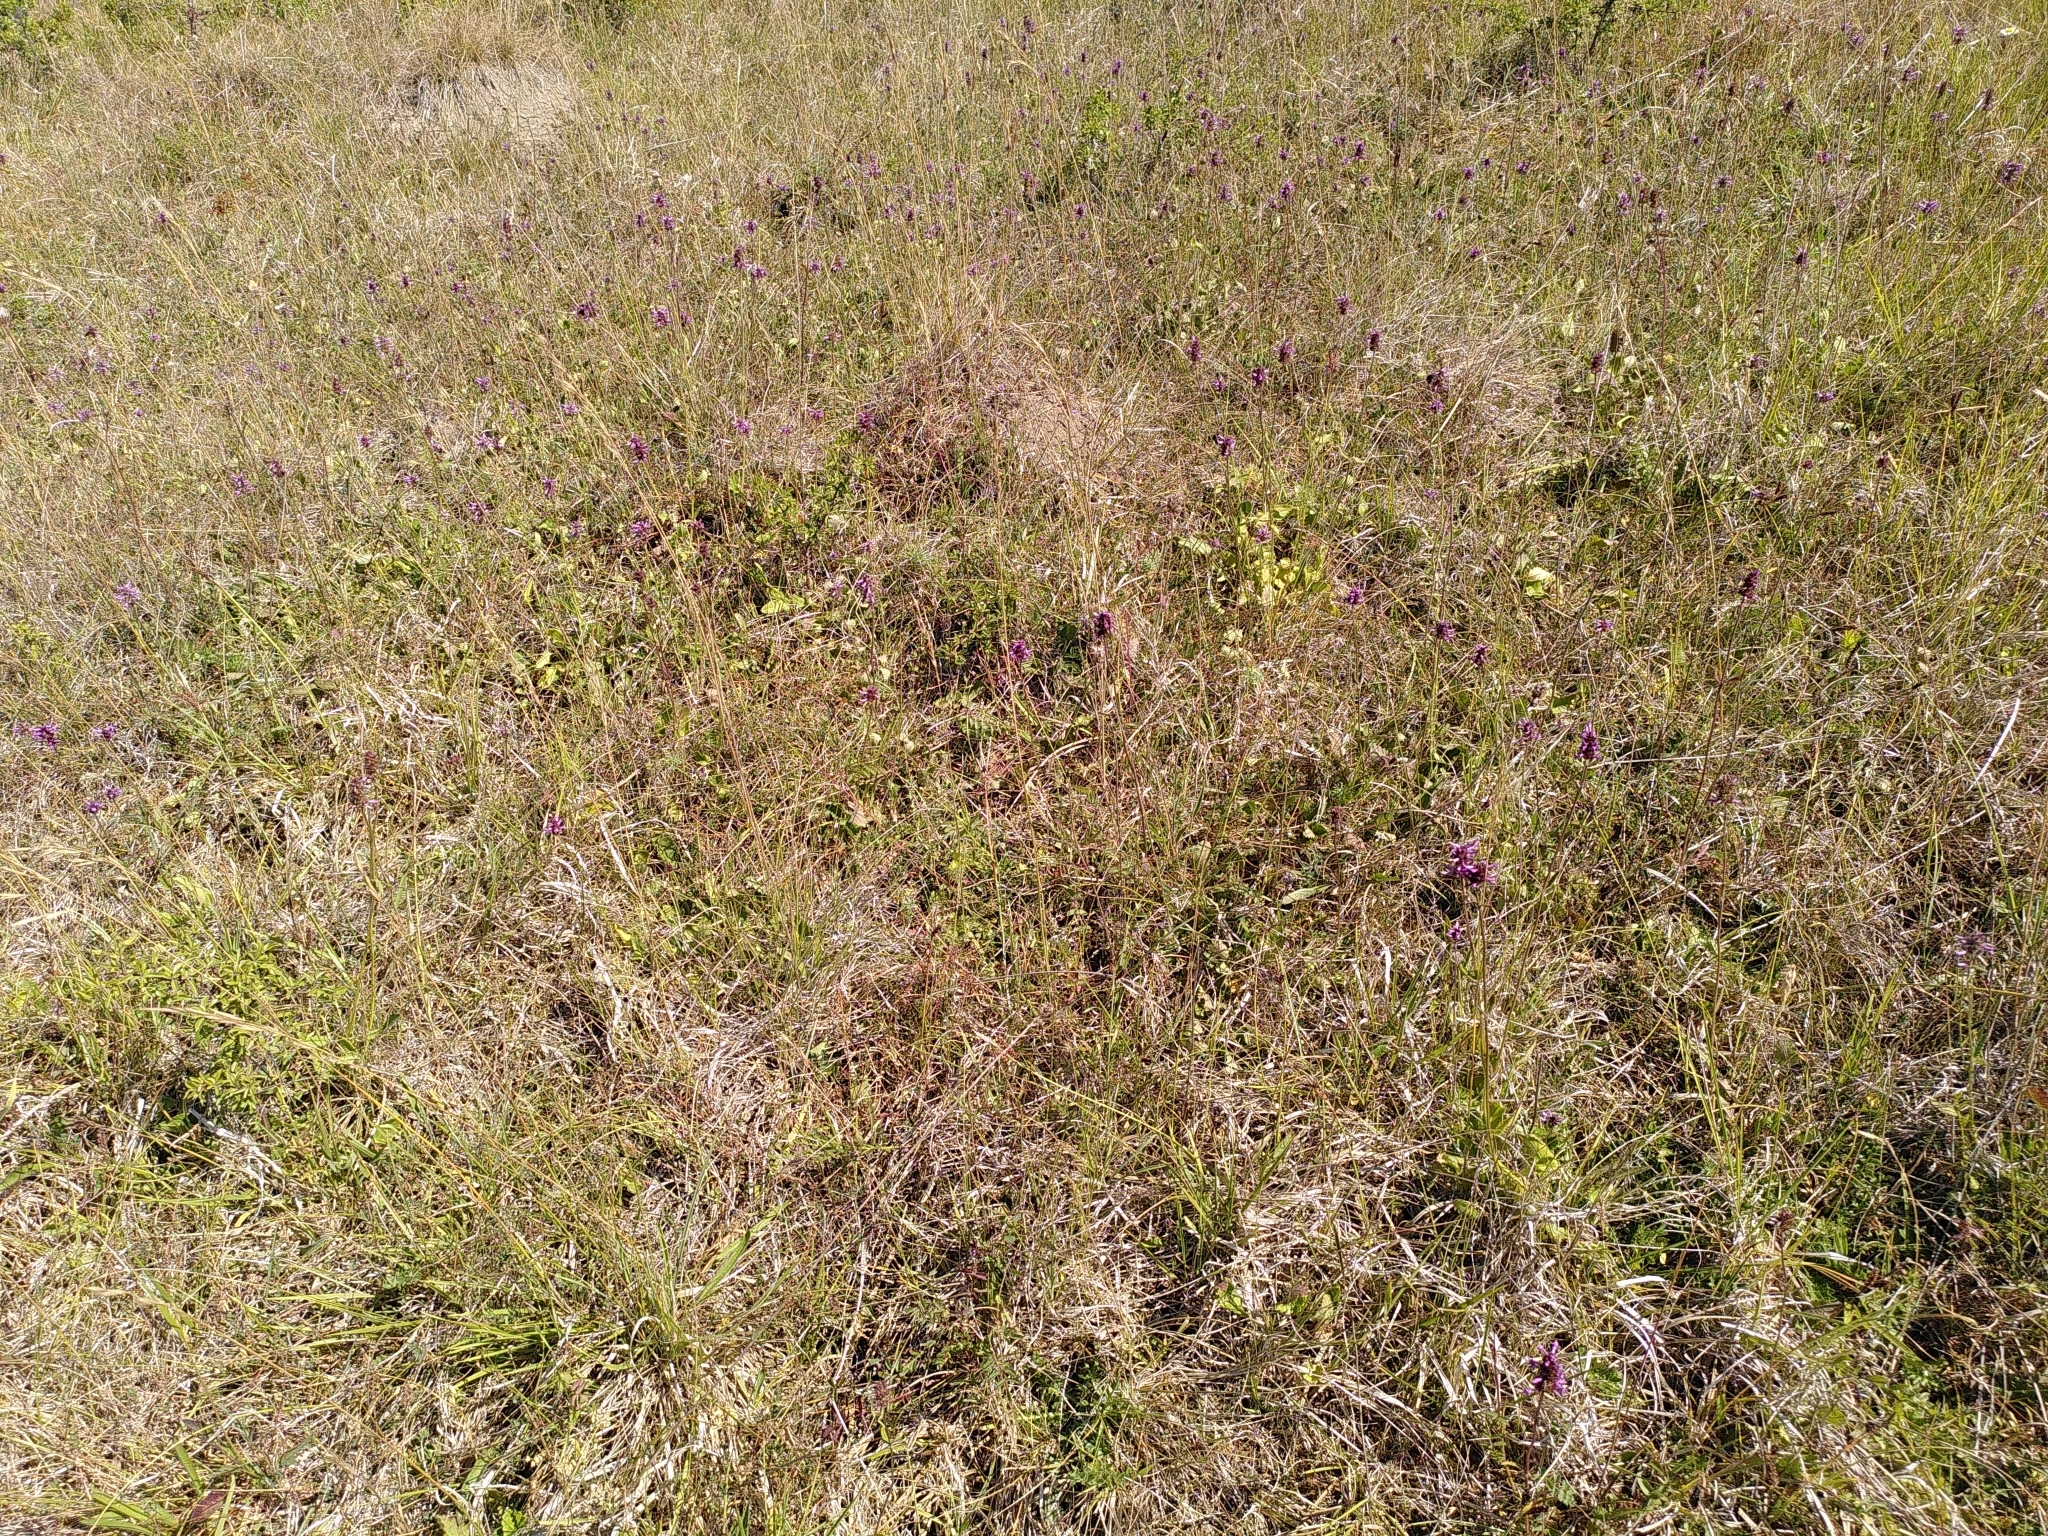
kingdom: Plantae
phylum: Tracheophyta
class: Magnoliopsida
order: Lamiales
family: Lamiaceae
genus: Betonica
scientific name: Betonica officinalis
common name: Bishop's-wort
